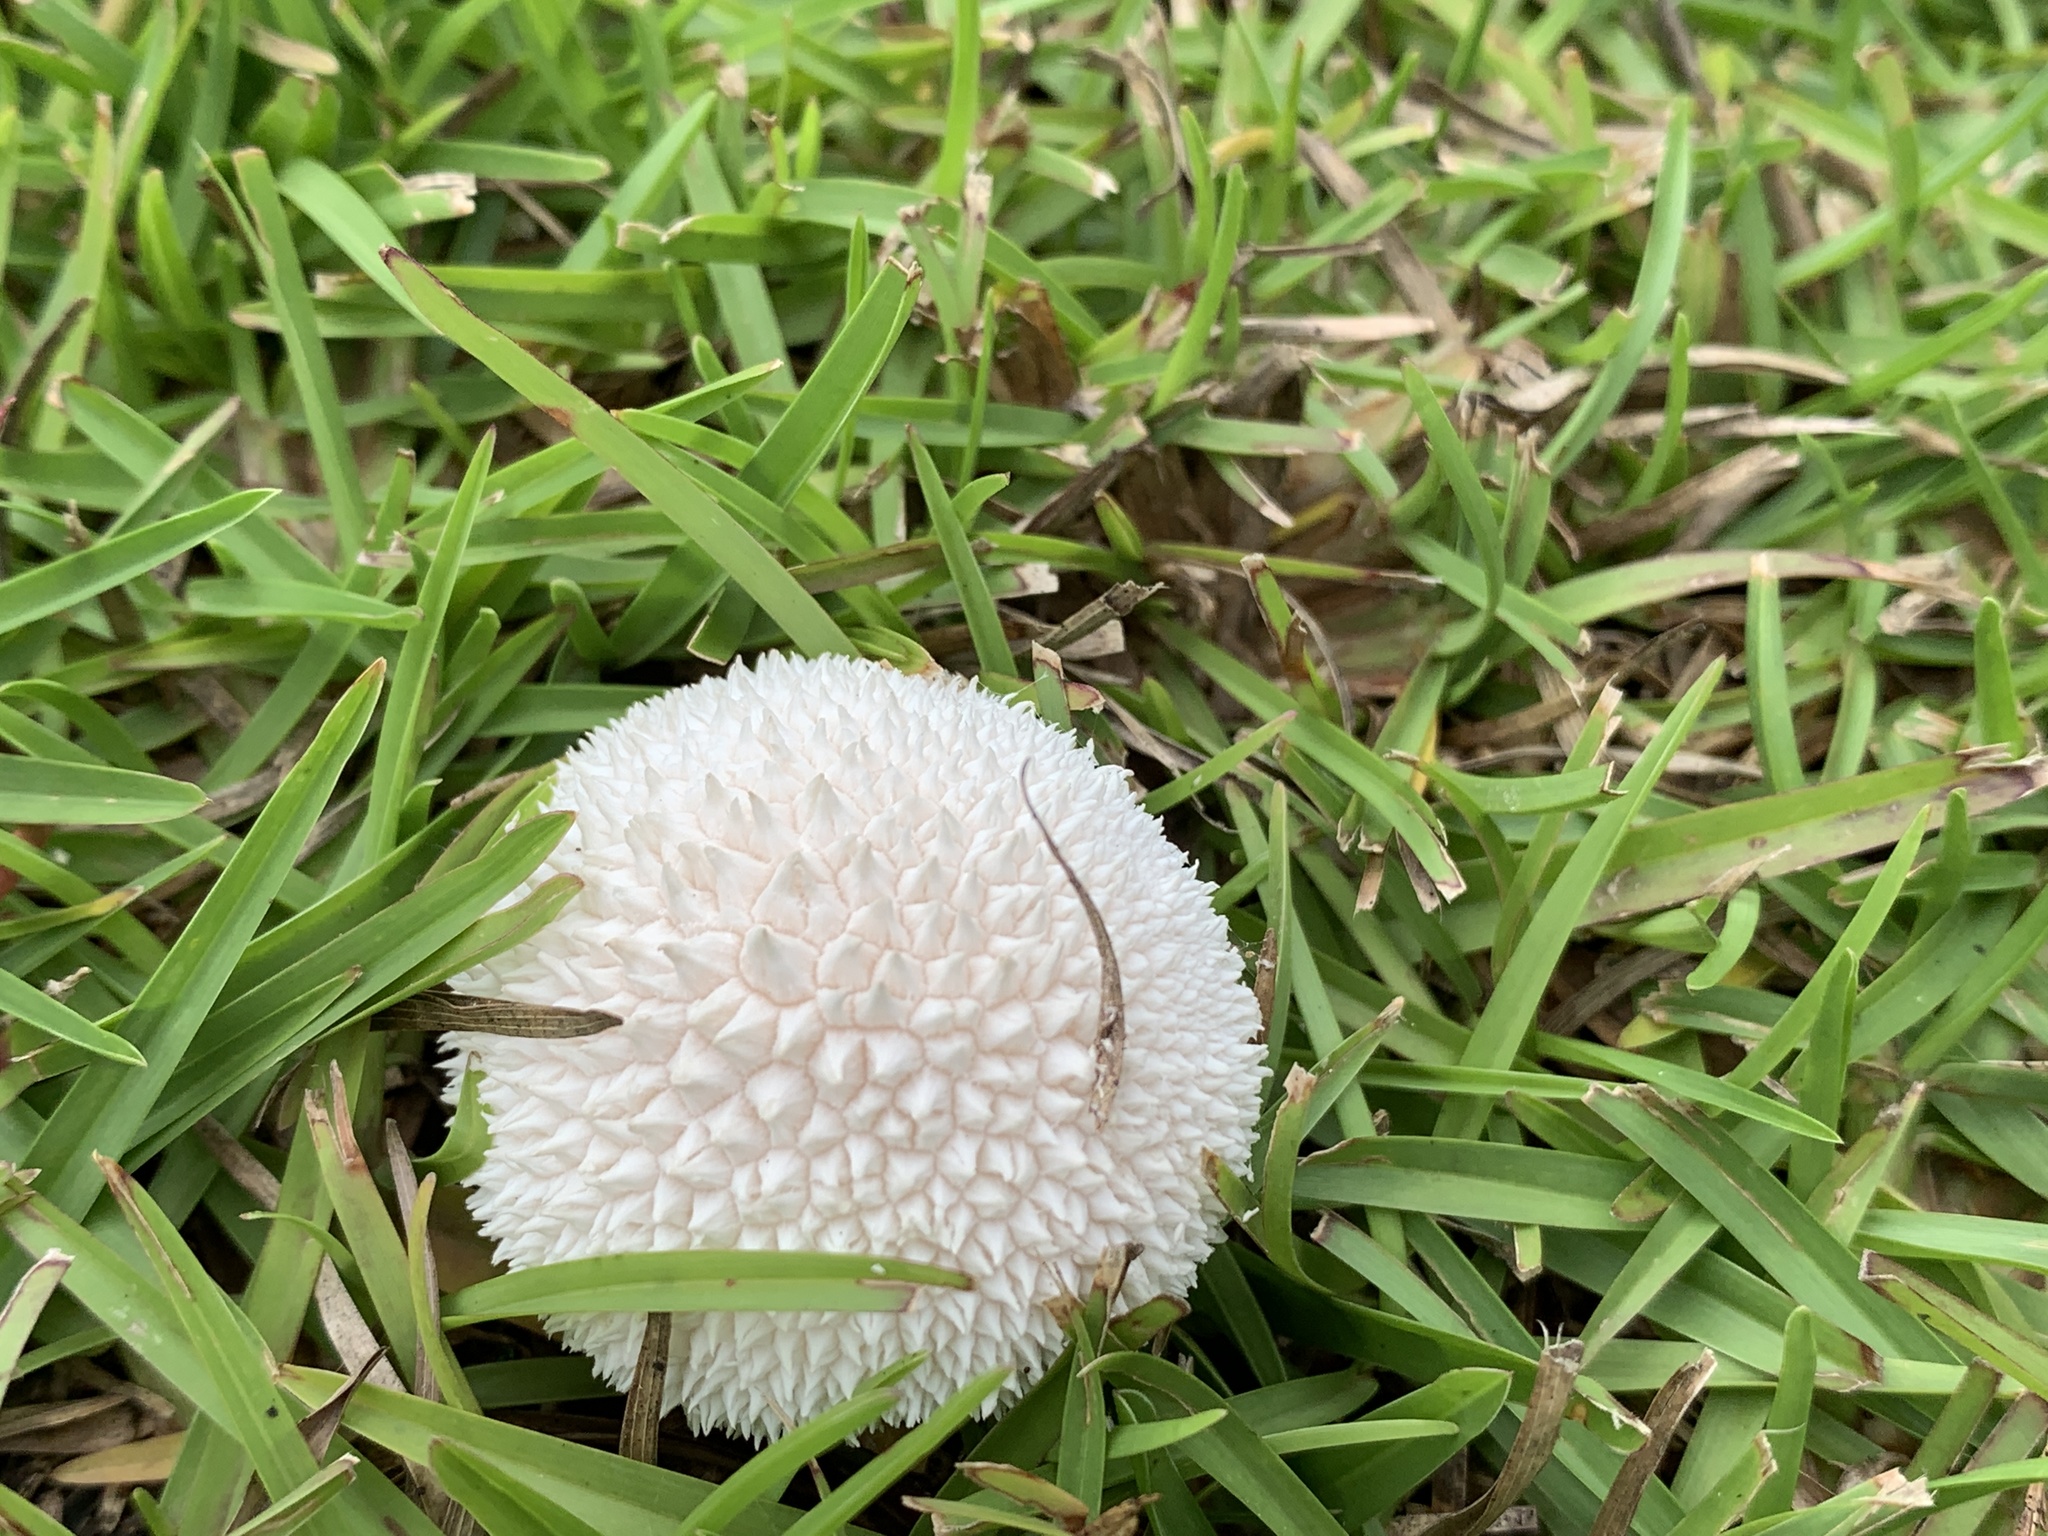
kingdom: Fungi
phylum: Basidiomycota
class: Agaricomycetes
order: Agaricales
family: Agaricaceae
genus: Lycoperdon
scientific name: Lycoperdon marginatum
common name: Peeling puffball
